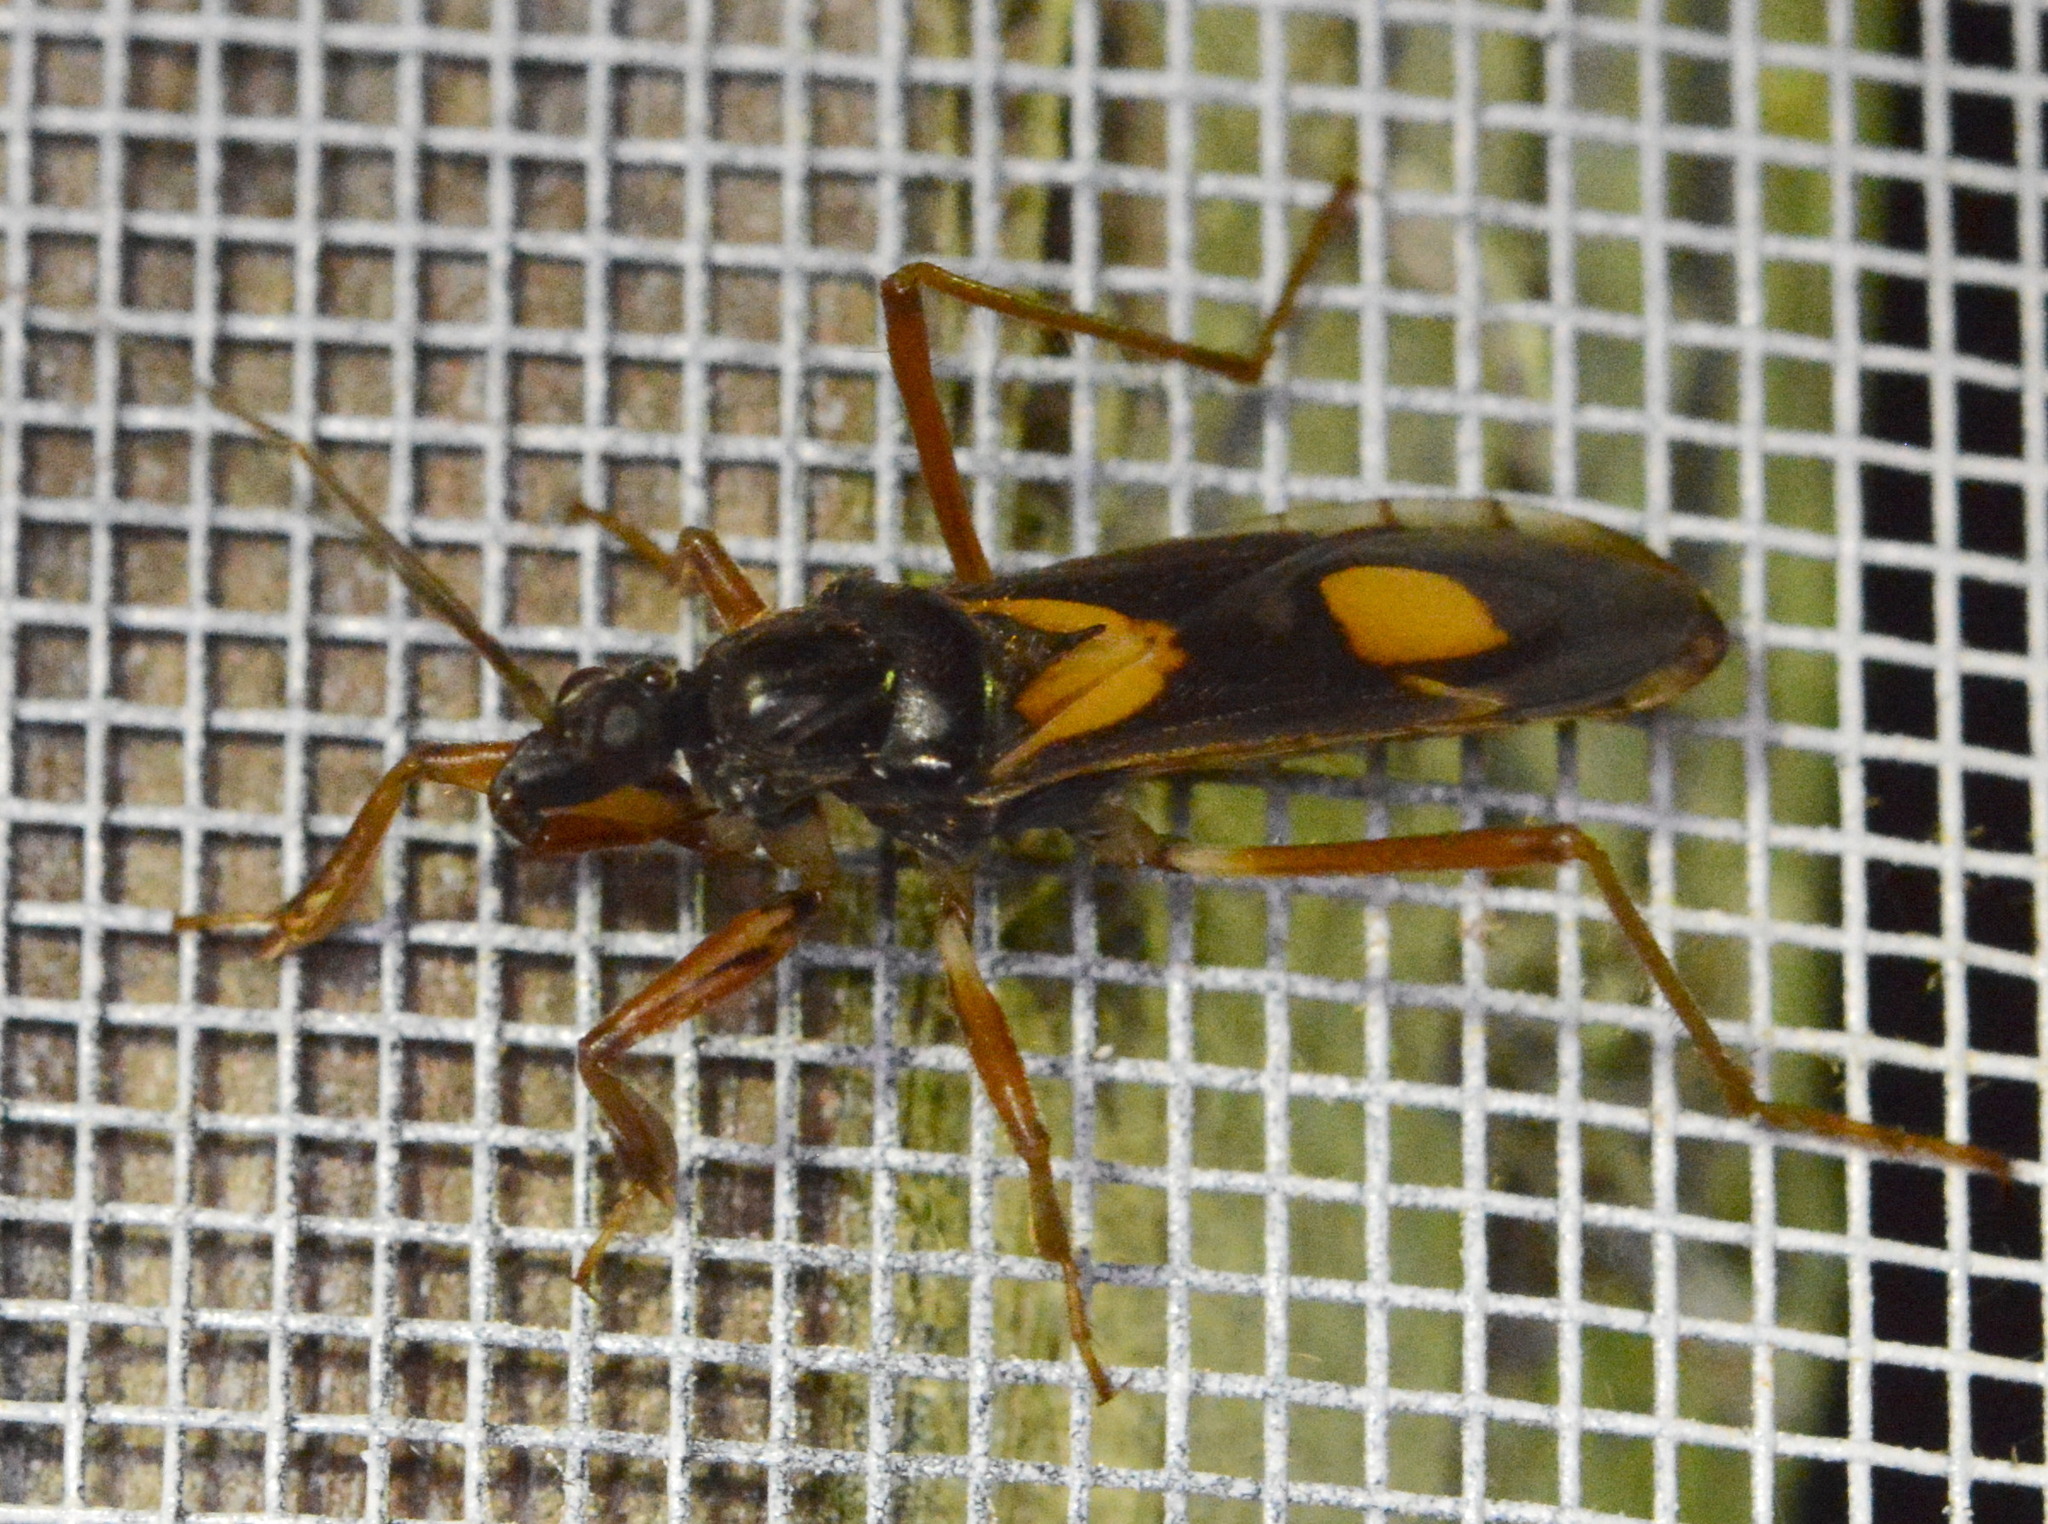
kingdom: Animalia
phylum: Arthropoda
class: Insecta
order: Hemiptera
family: Reduviidae
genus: Rasahus
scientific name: Rasahus hamatus
